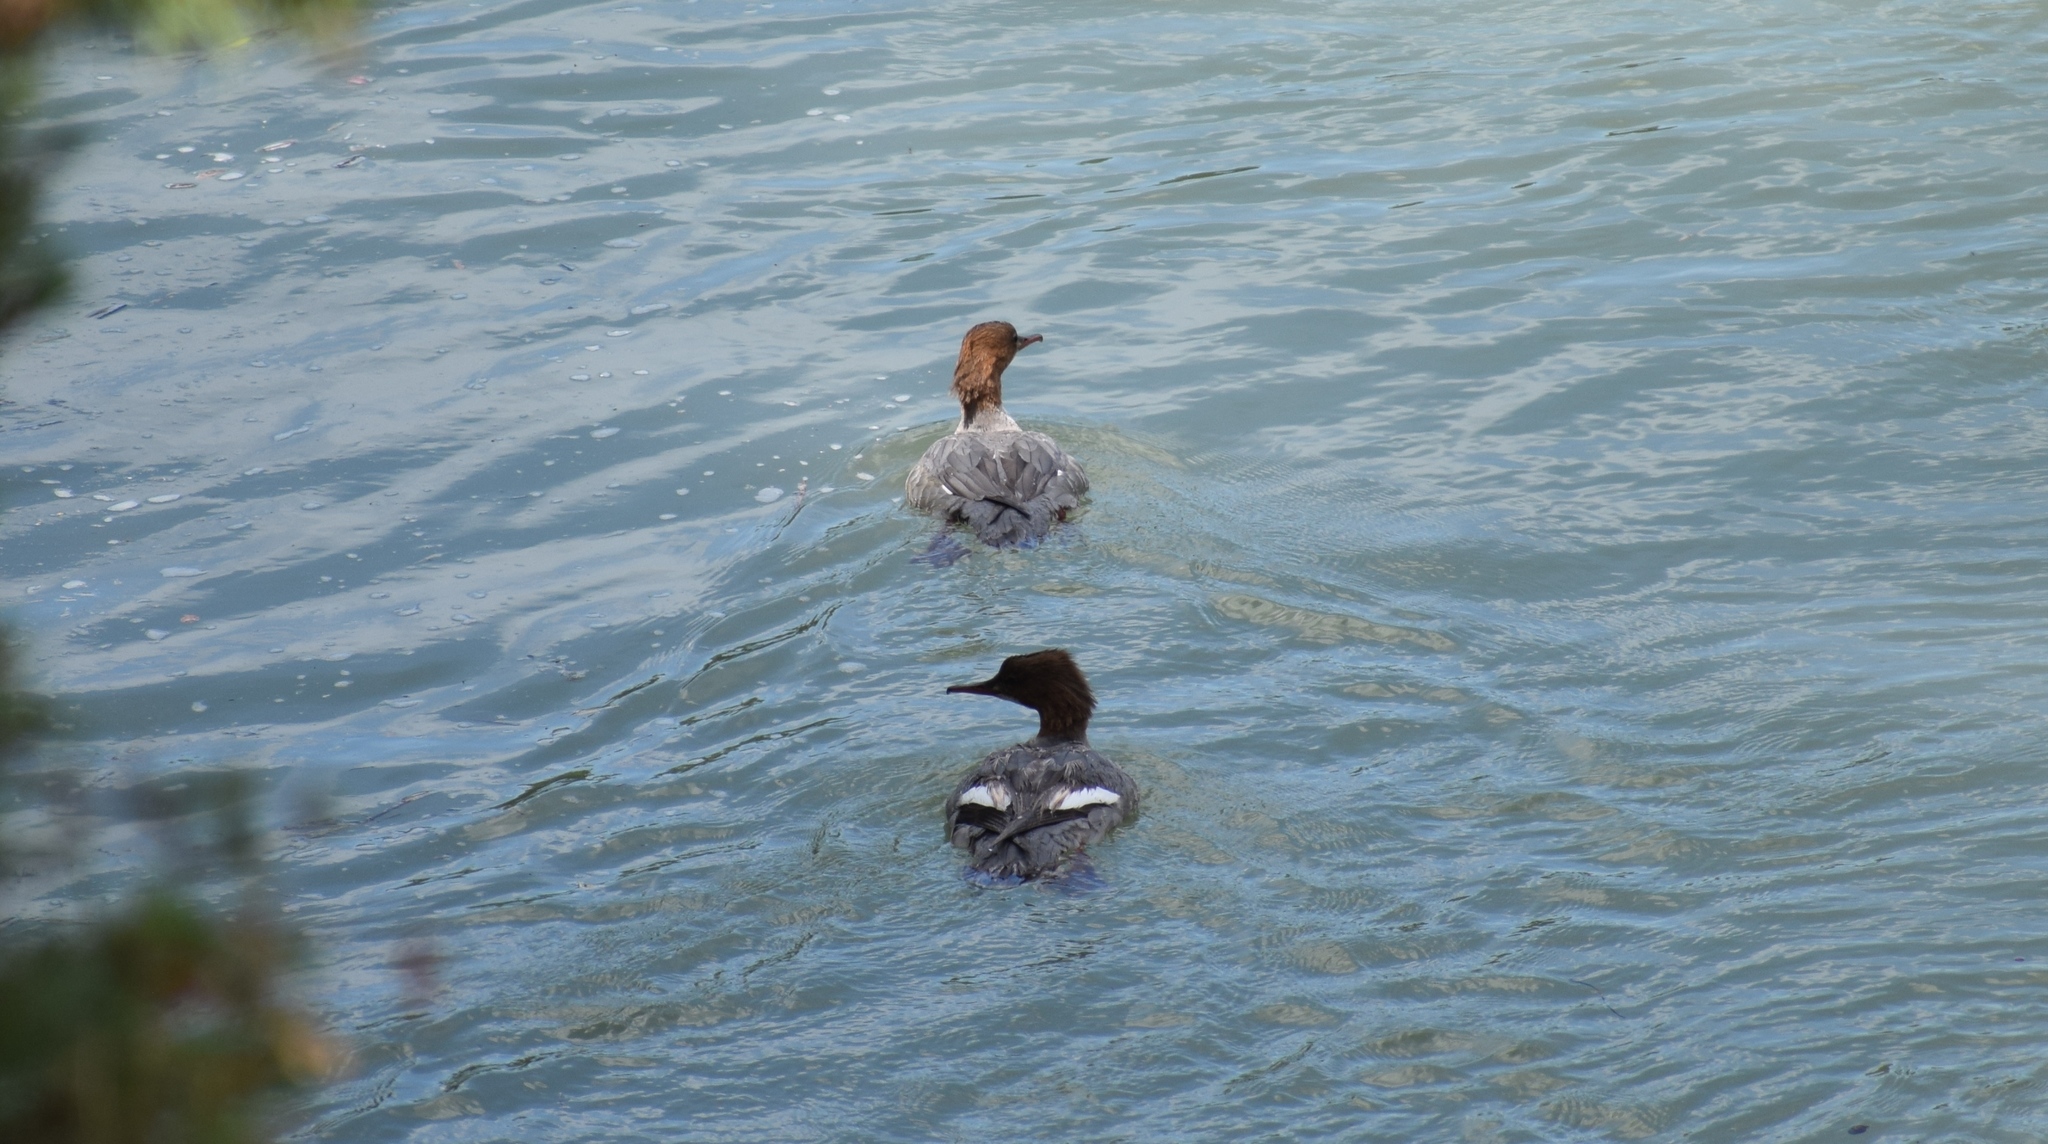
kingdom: Animalia
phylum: Chordata
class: Aves
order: Anseriformes
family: Anatidae
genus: Mergus
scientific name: Mergus merganser
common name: Common merganser
